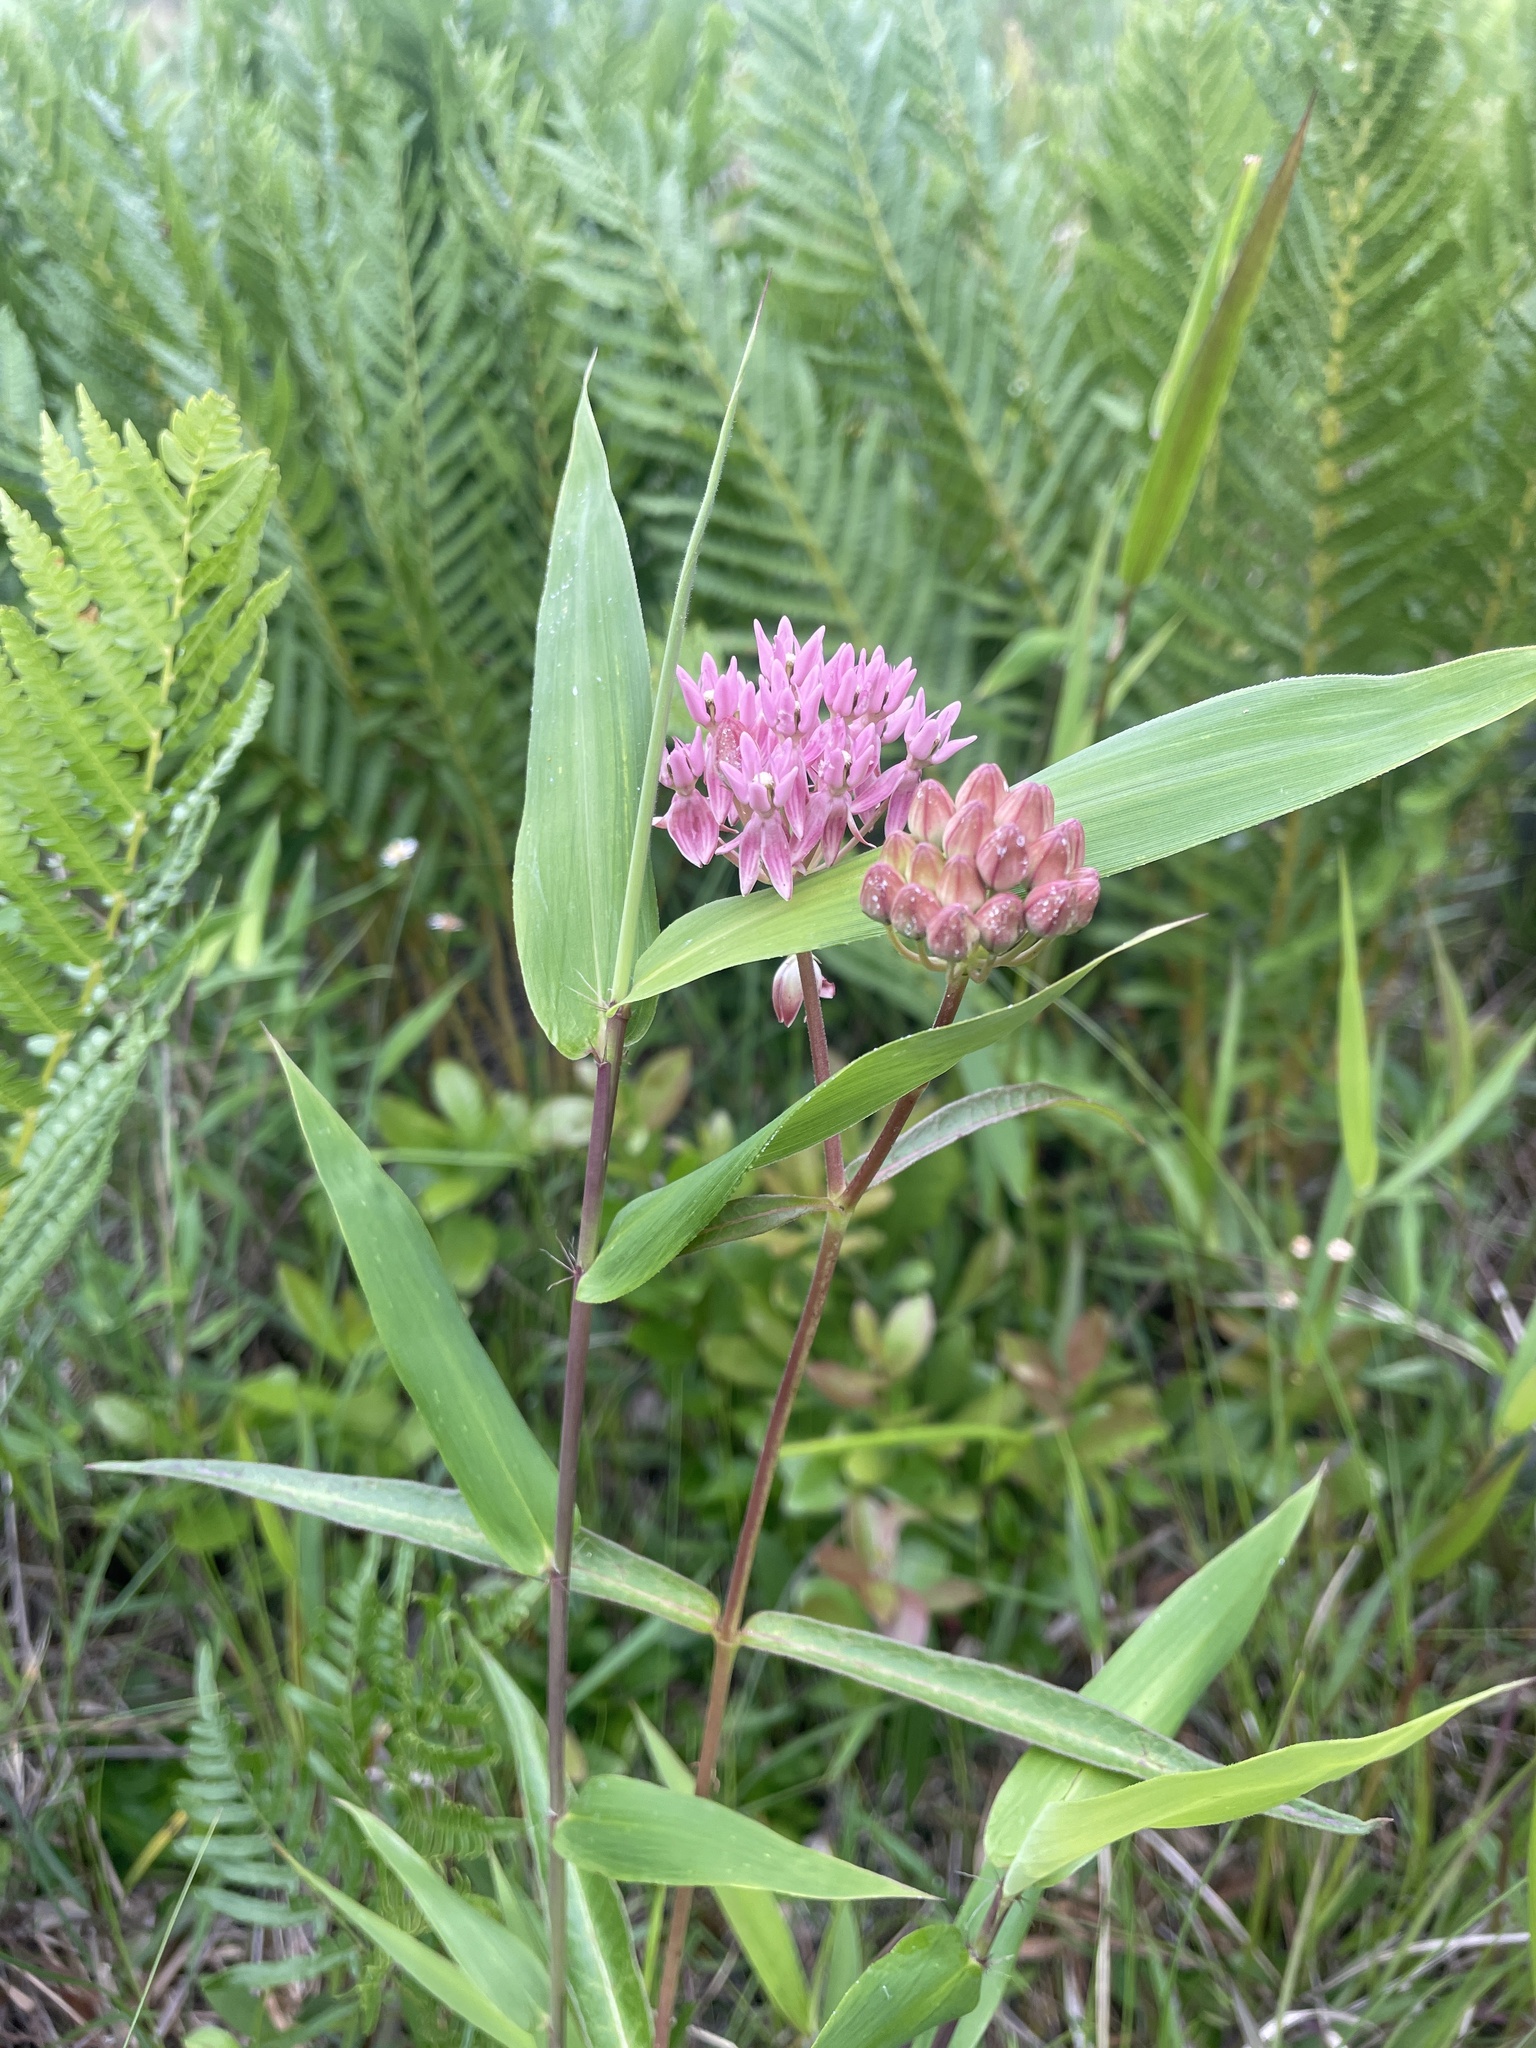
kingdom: Plantae
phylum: Tracheophyta
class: Magnoliopsida
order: Gentianales
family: Apocynaceae
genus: Asclepias
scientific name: Asclepias rubra
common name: Red milkweed
